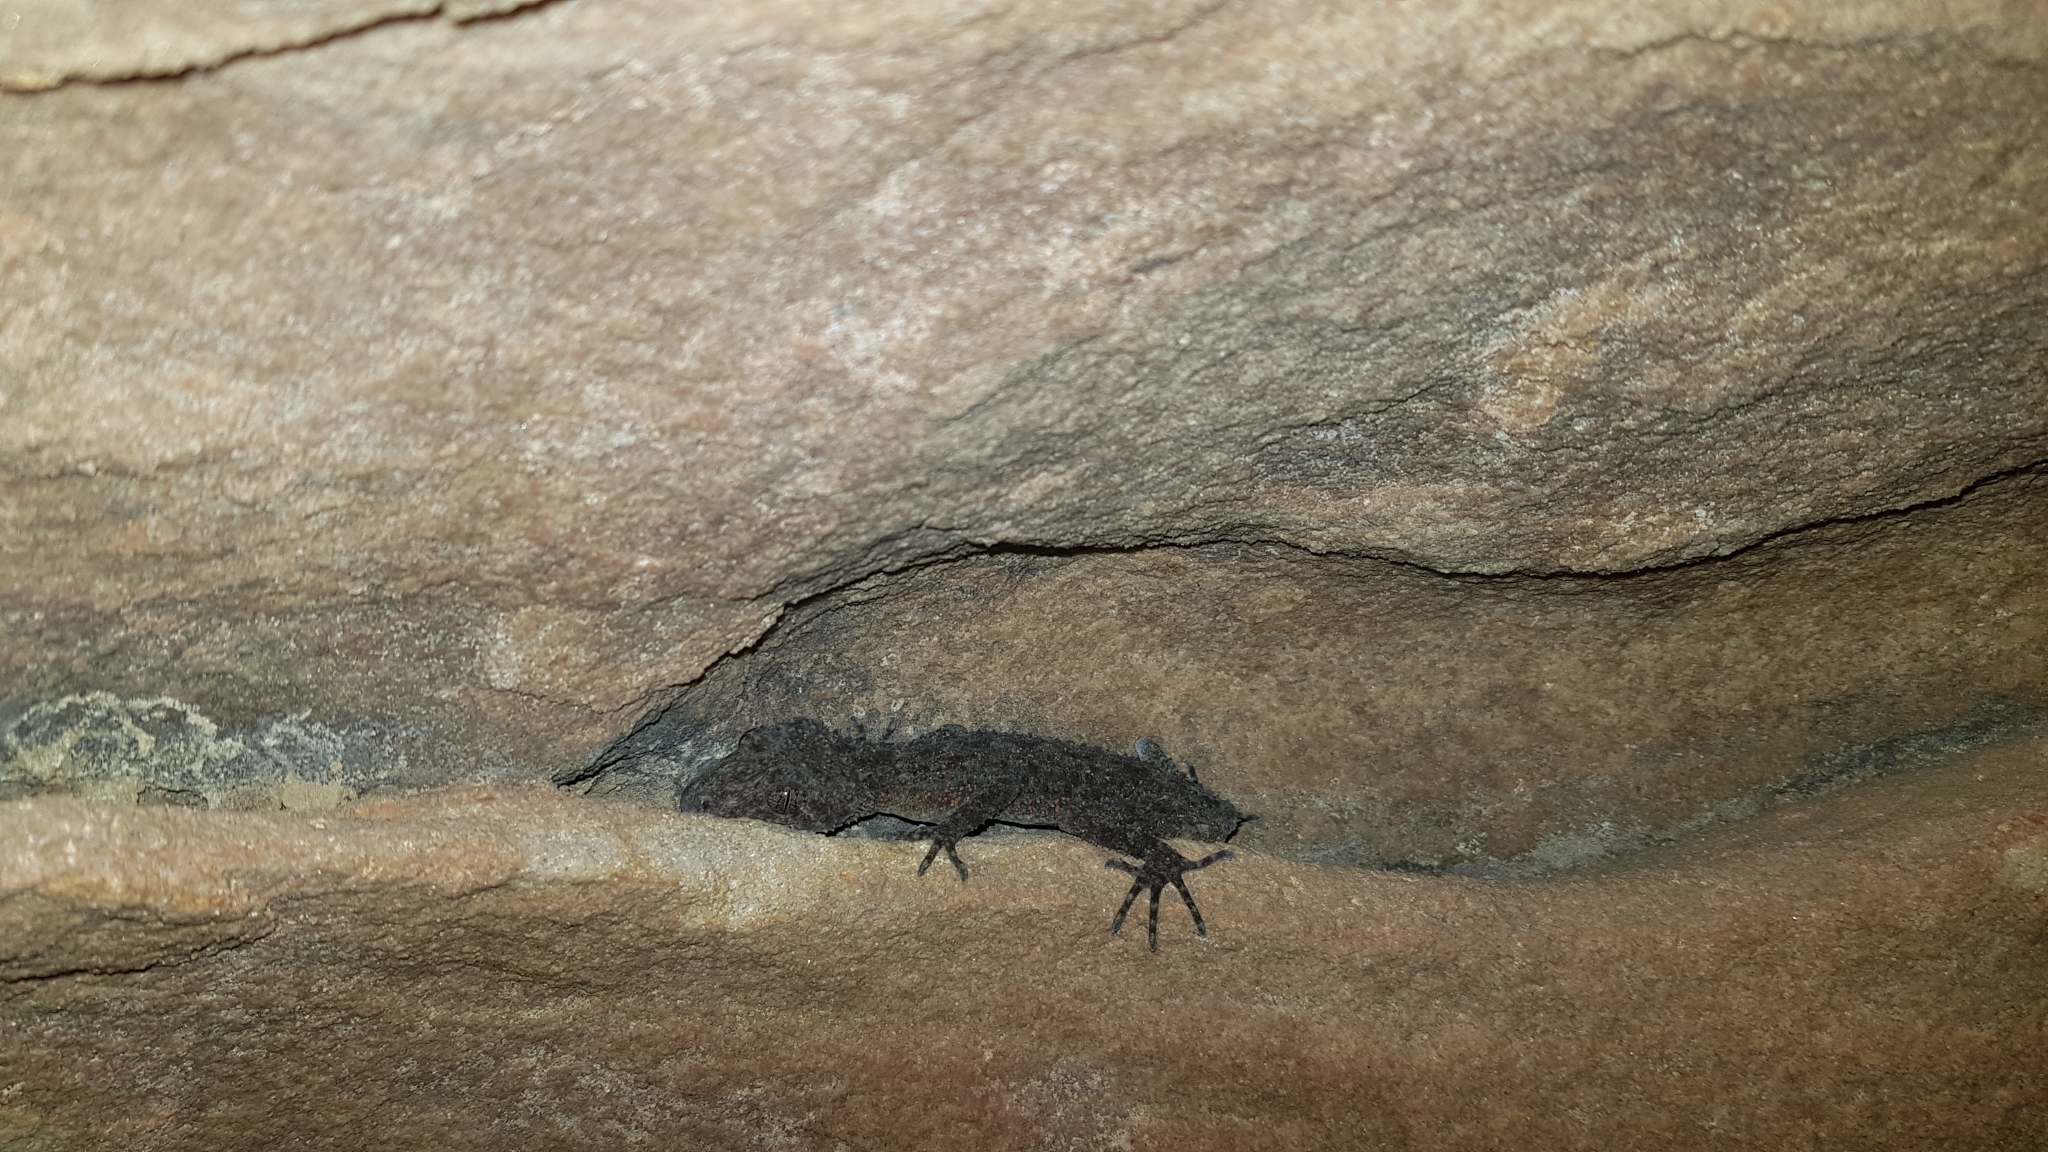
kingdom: Animalia
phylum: Chordata
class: Squamata
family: Carphodactylidae
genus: Phyllurus
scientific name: Phyllurus platurus
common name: Broad-tailed gecko
